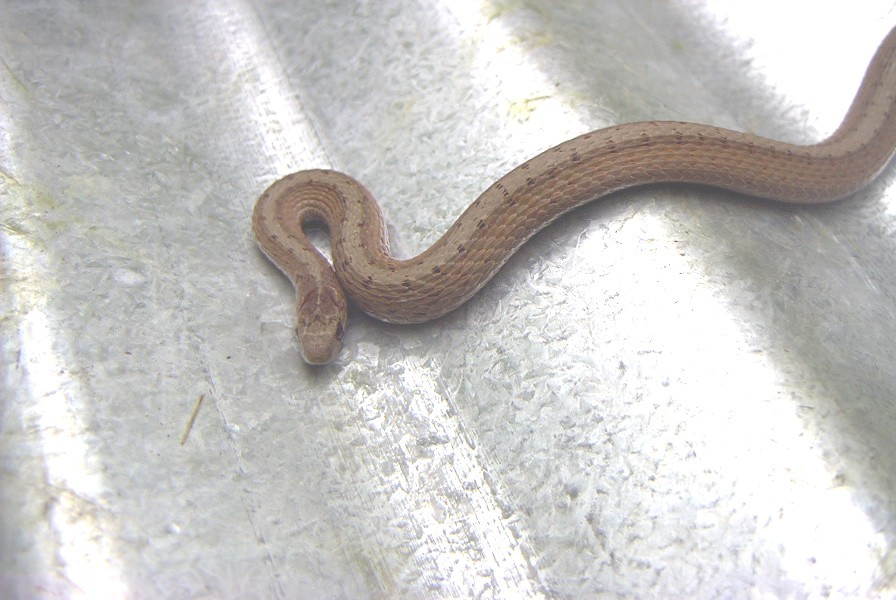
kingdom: Animalia
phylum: Chordata
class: Squamata
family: Colubridae
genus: Storeria
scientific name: Storeria dekayi
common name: (dekay’s) brown snake
